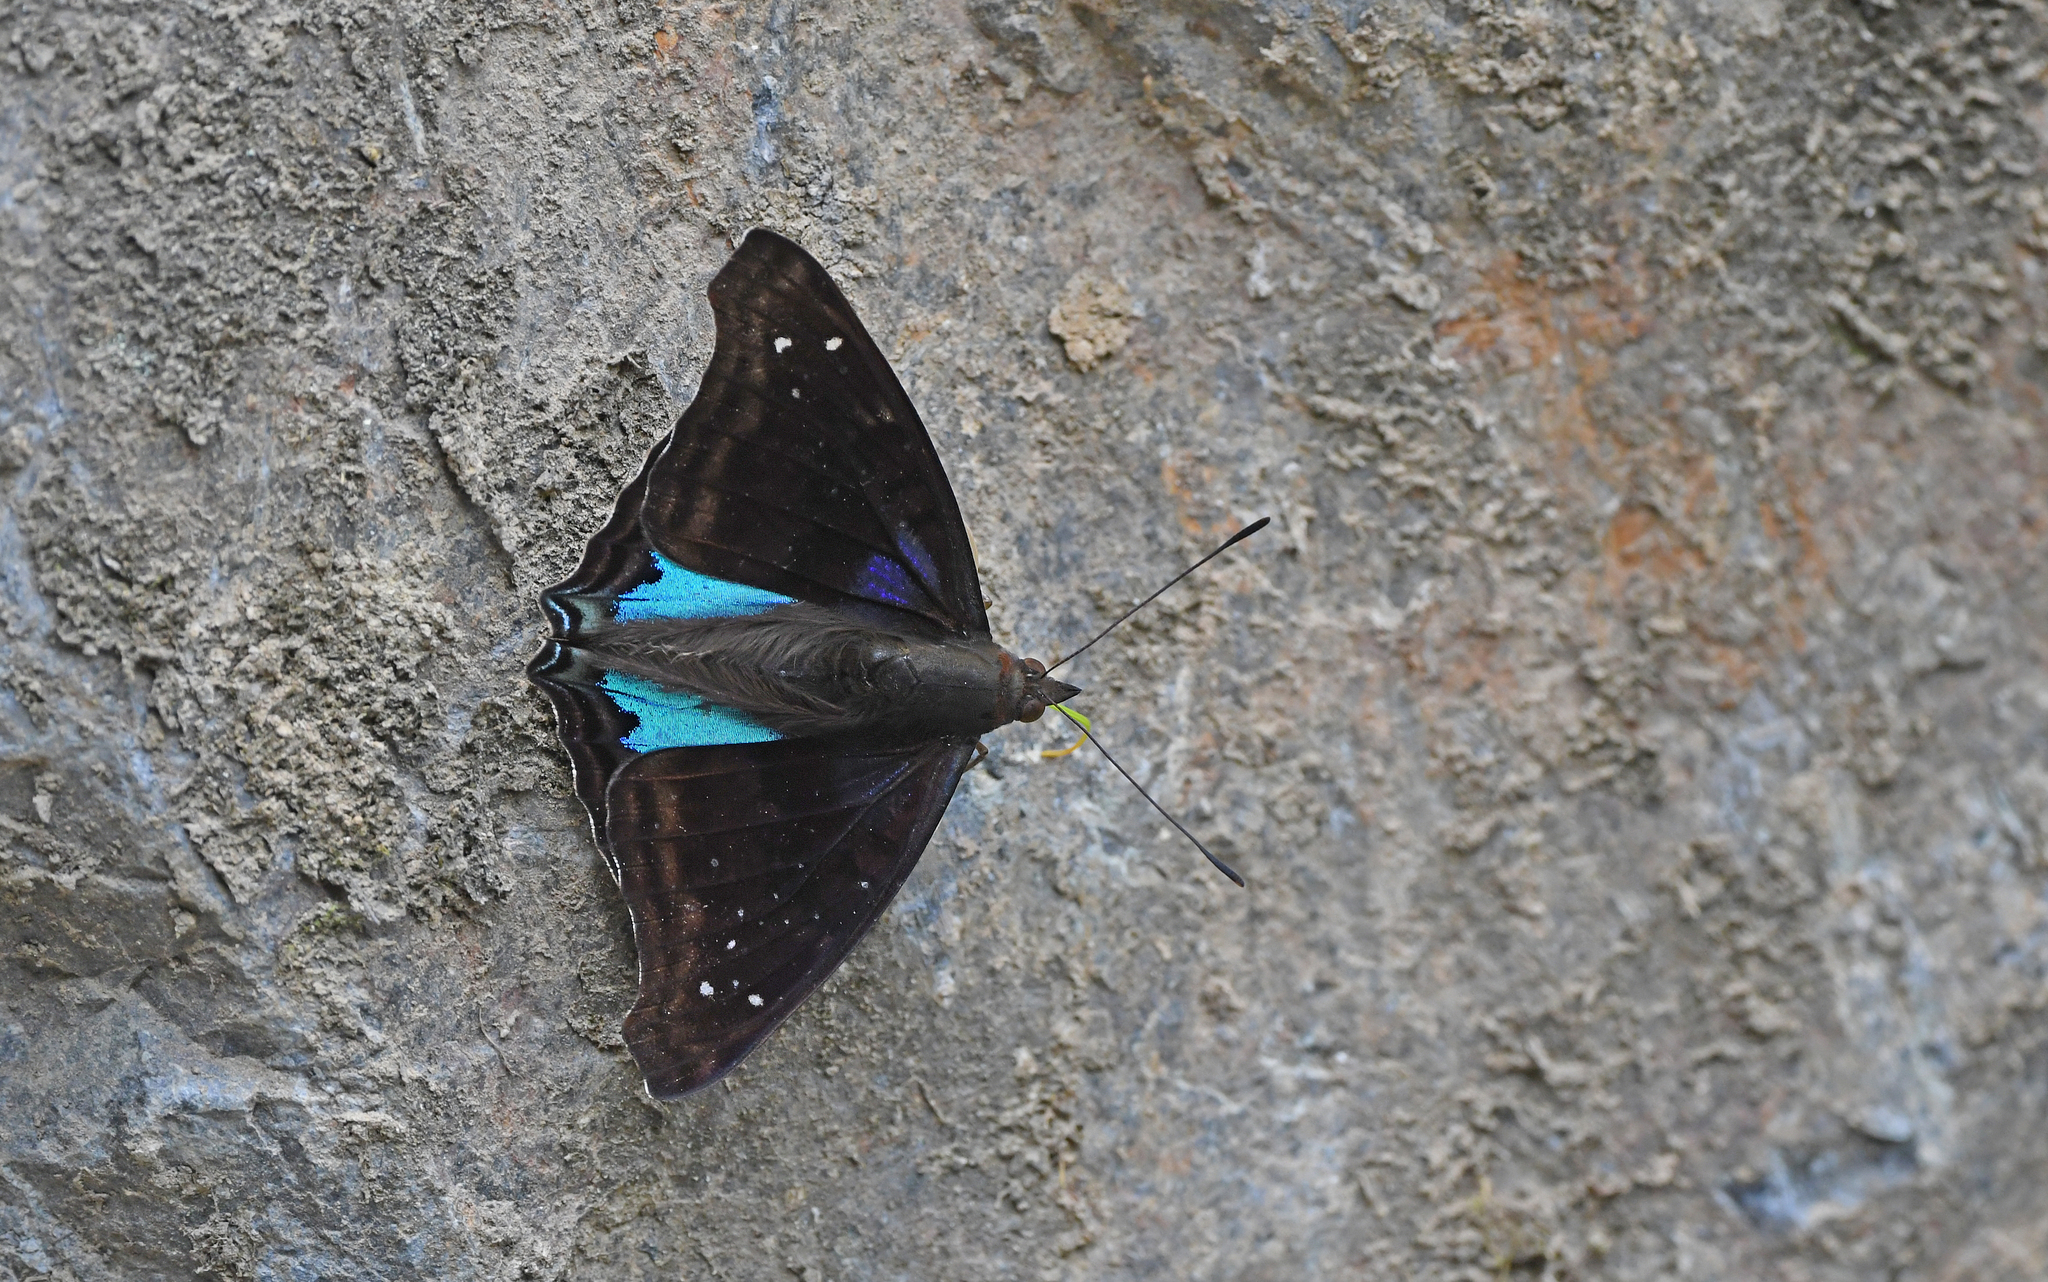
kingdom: Animalia
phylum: Arthropoda
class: Insecta
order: Lepidoptera
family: Nymphalidae
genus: Doxocopa
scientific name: Doxocopa cyane
